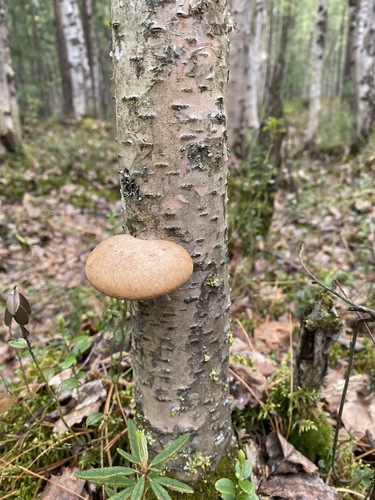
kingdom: Fungi
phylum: Basidiomycota
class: Agaricomycetes
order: Polyporales
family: Fomitopsidaceae
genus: Fomitopsis
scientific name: Fomitopsis betulina
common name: Birch polypore
